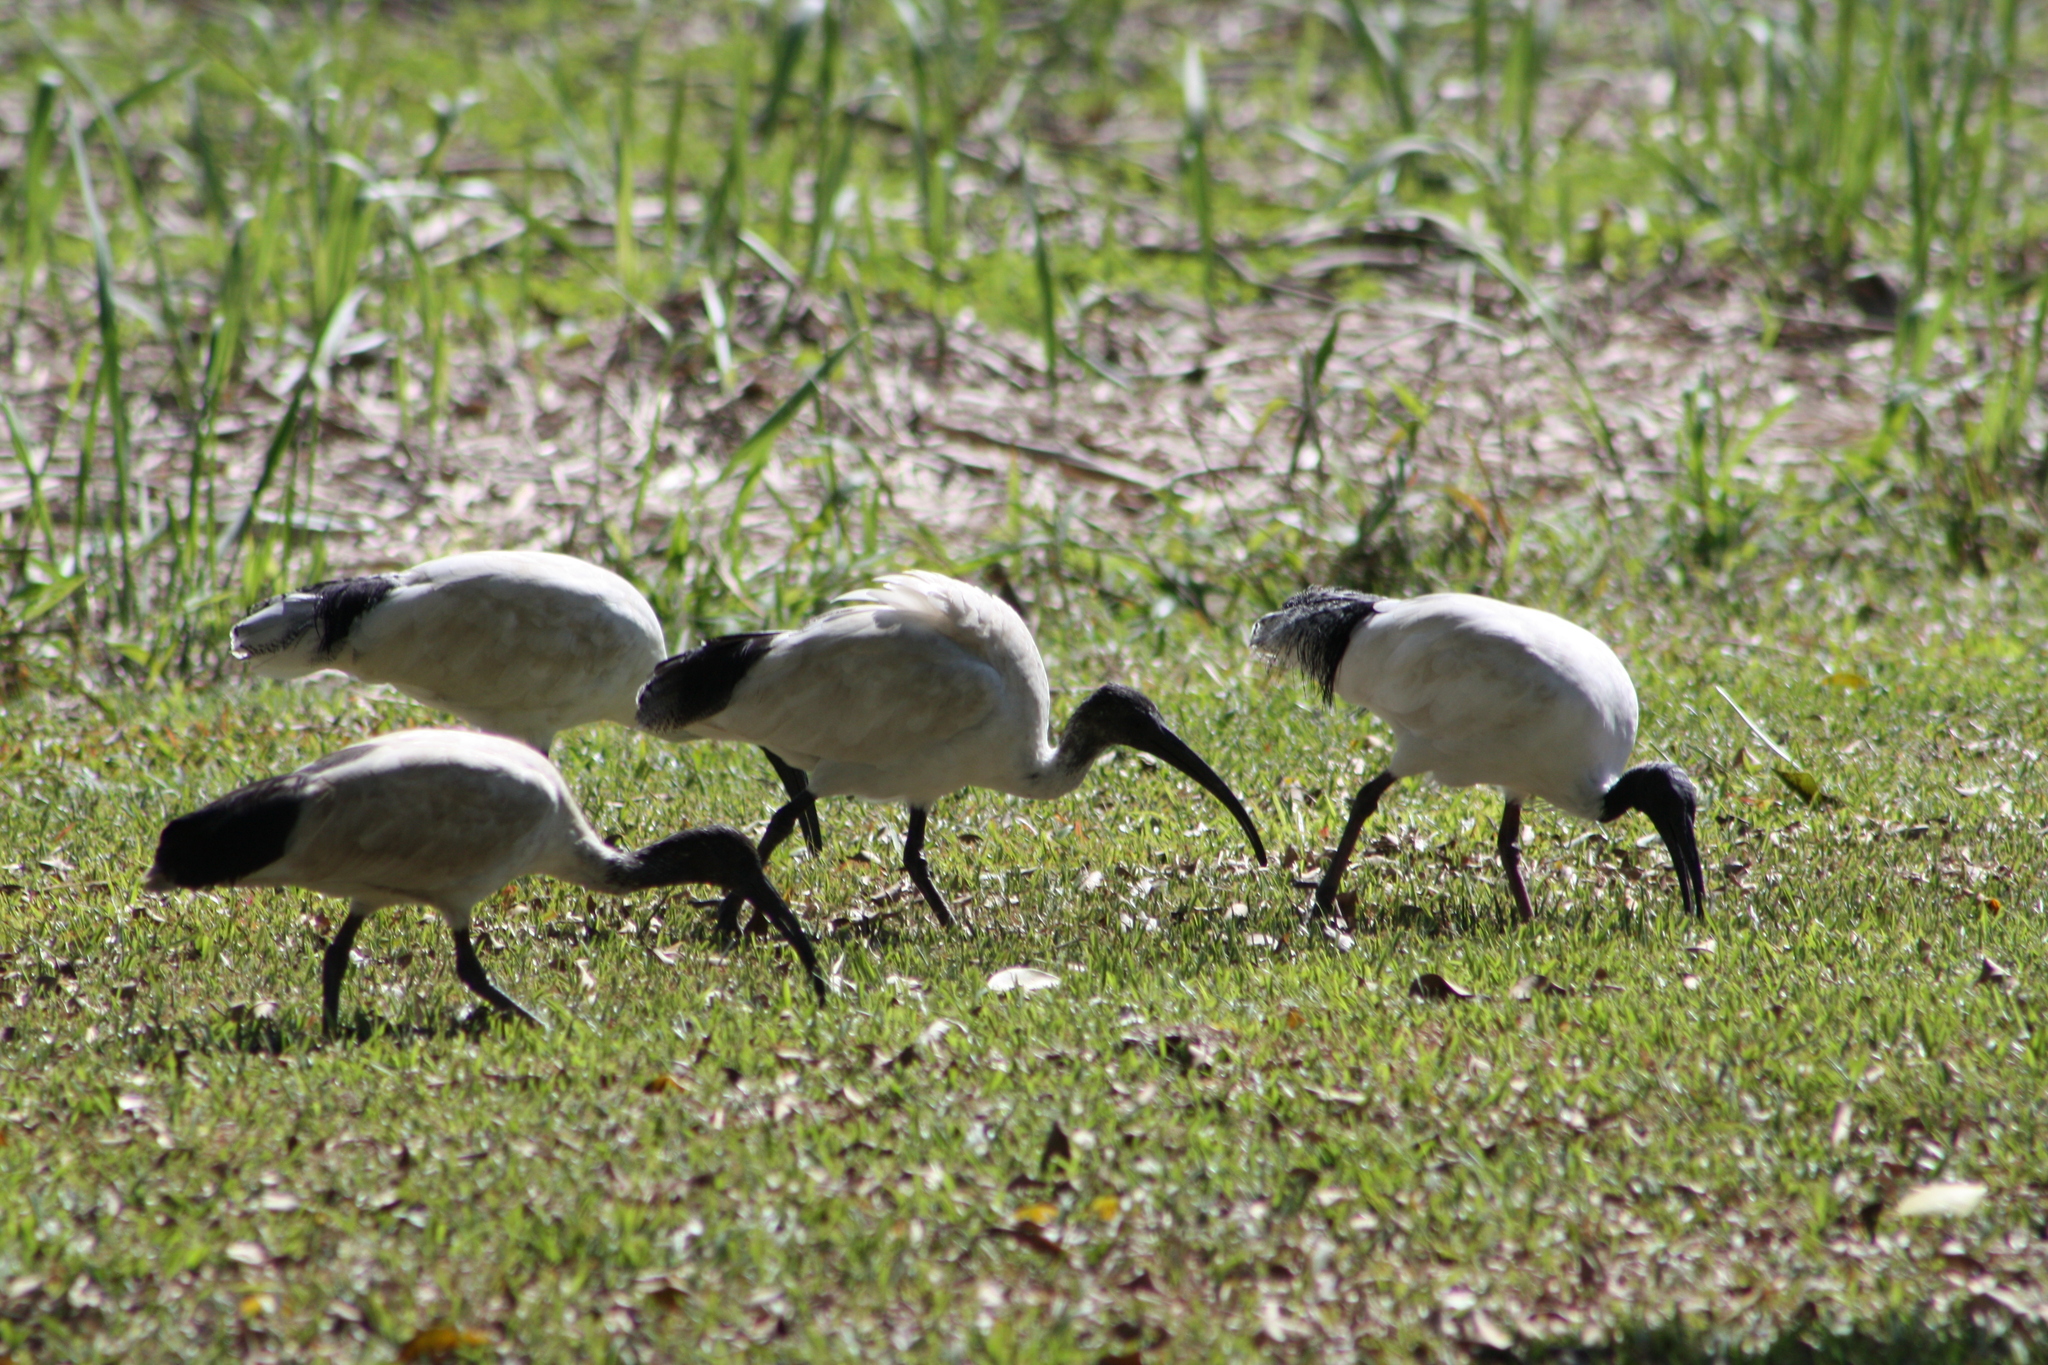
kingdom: Animalia
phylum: Chordata
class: Aves
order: Pelecaniformes
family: Threskiornithidae
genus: Threskiornis
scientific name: Threskiornis molucca
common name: Australian white ibis
